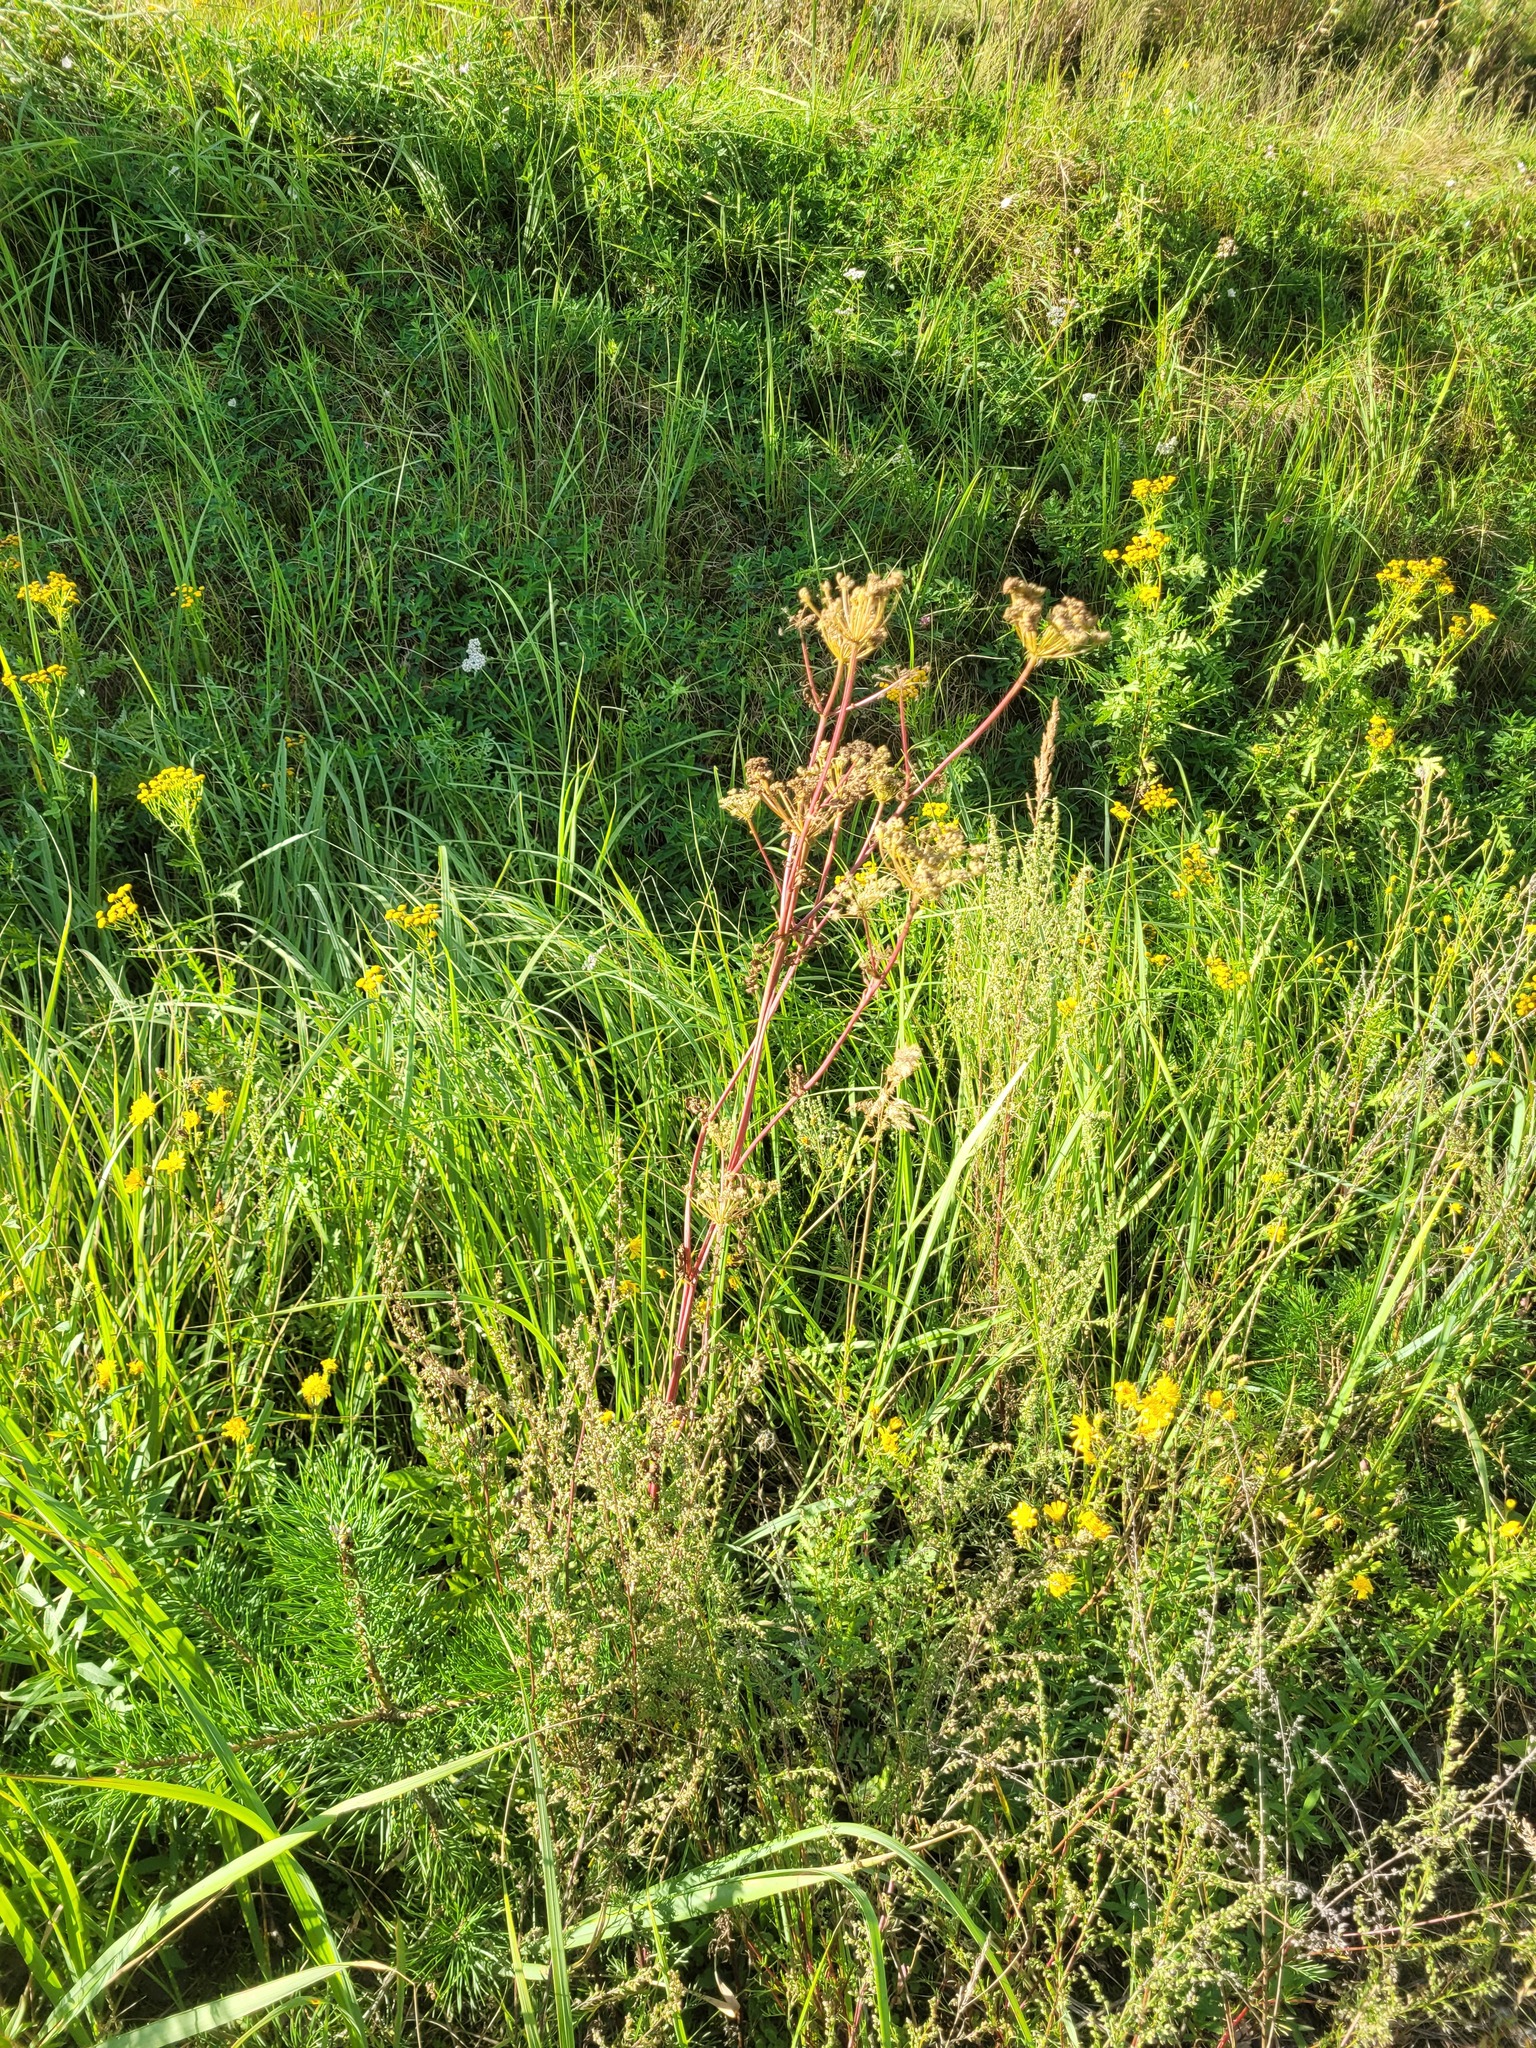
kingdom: Plantae
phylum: Tracheophyta
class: Magnoliopsida
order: Apiales
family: Apiaceae
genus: Seseli
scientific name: Seseli libanotis
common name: Mooncarrot
